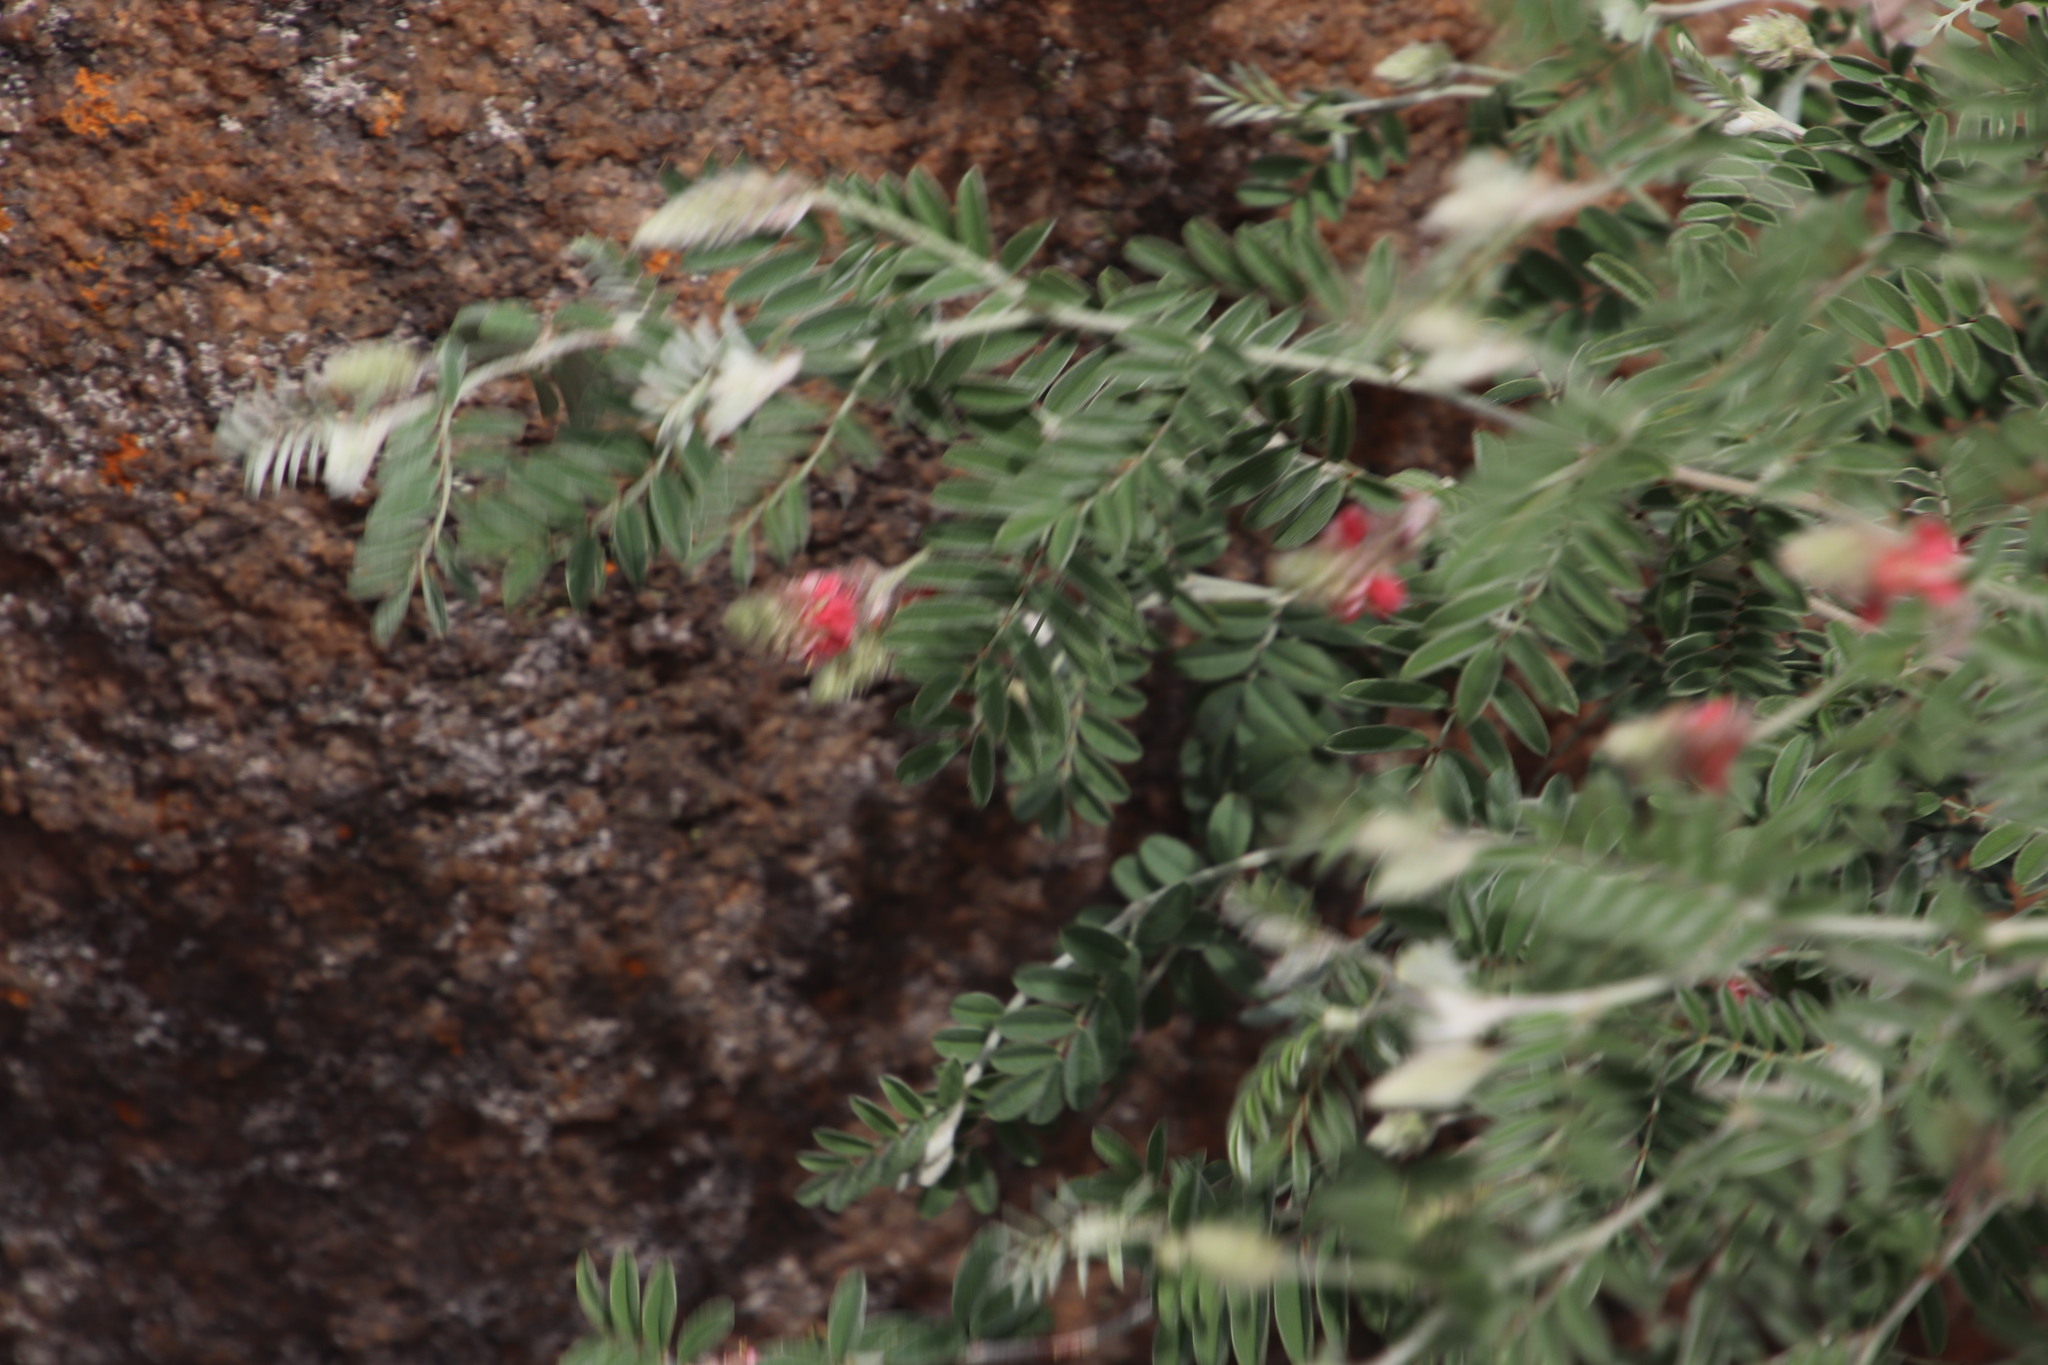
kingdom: Plantae
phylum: Tracheophyta
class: Magnoliopsida
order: Fabales
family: Fabaceae
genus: Indigofera
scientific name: Indigofera melanadenia
